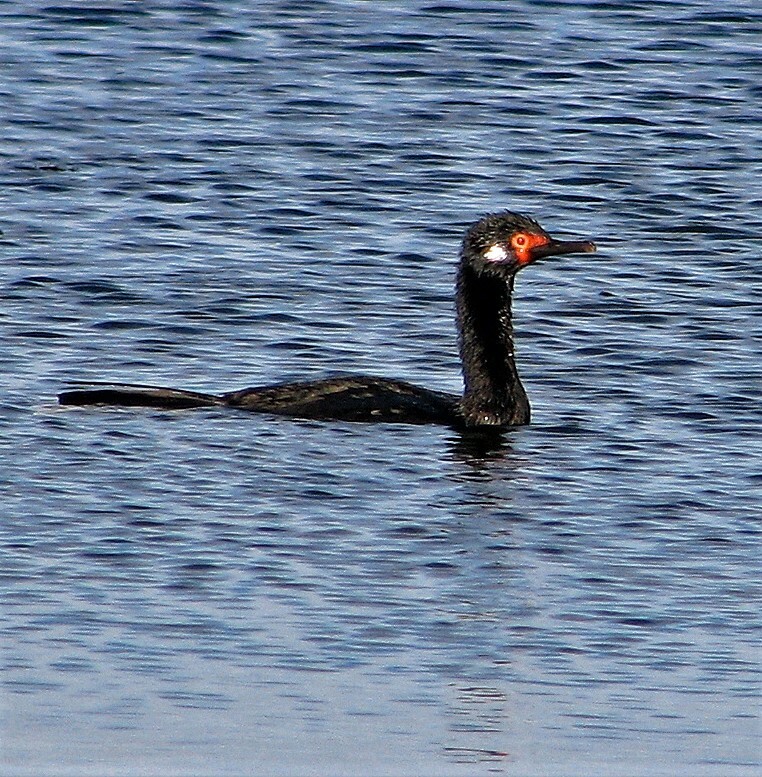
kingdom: Animalia
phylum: Chordata
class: Aves
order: Suliformes
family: Phalacrocoracidae
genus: Phalacrocorax
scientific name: Phalacrocorax magellanicus
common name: Rock shag
